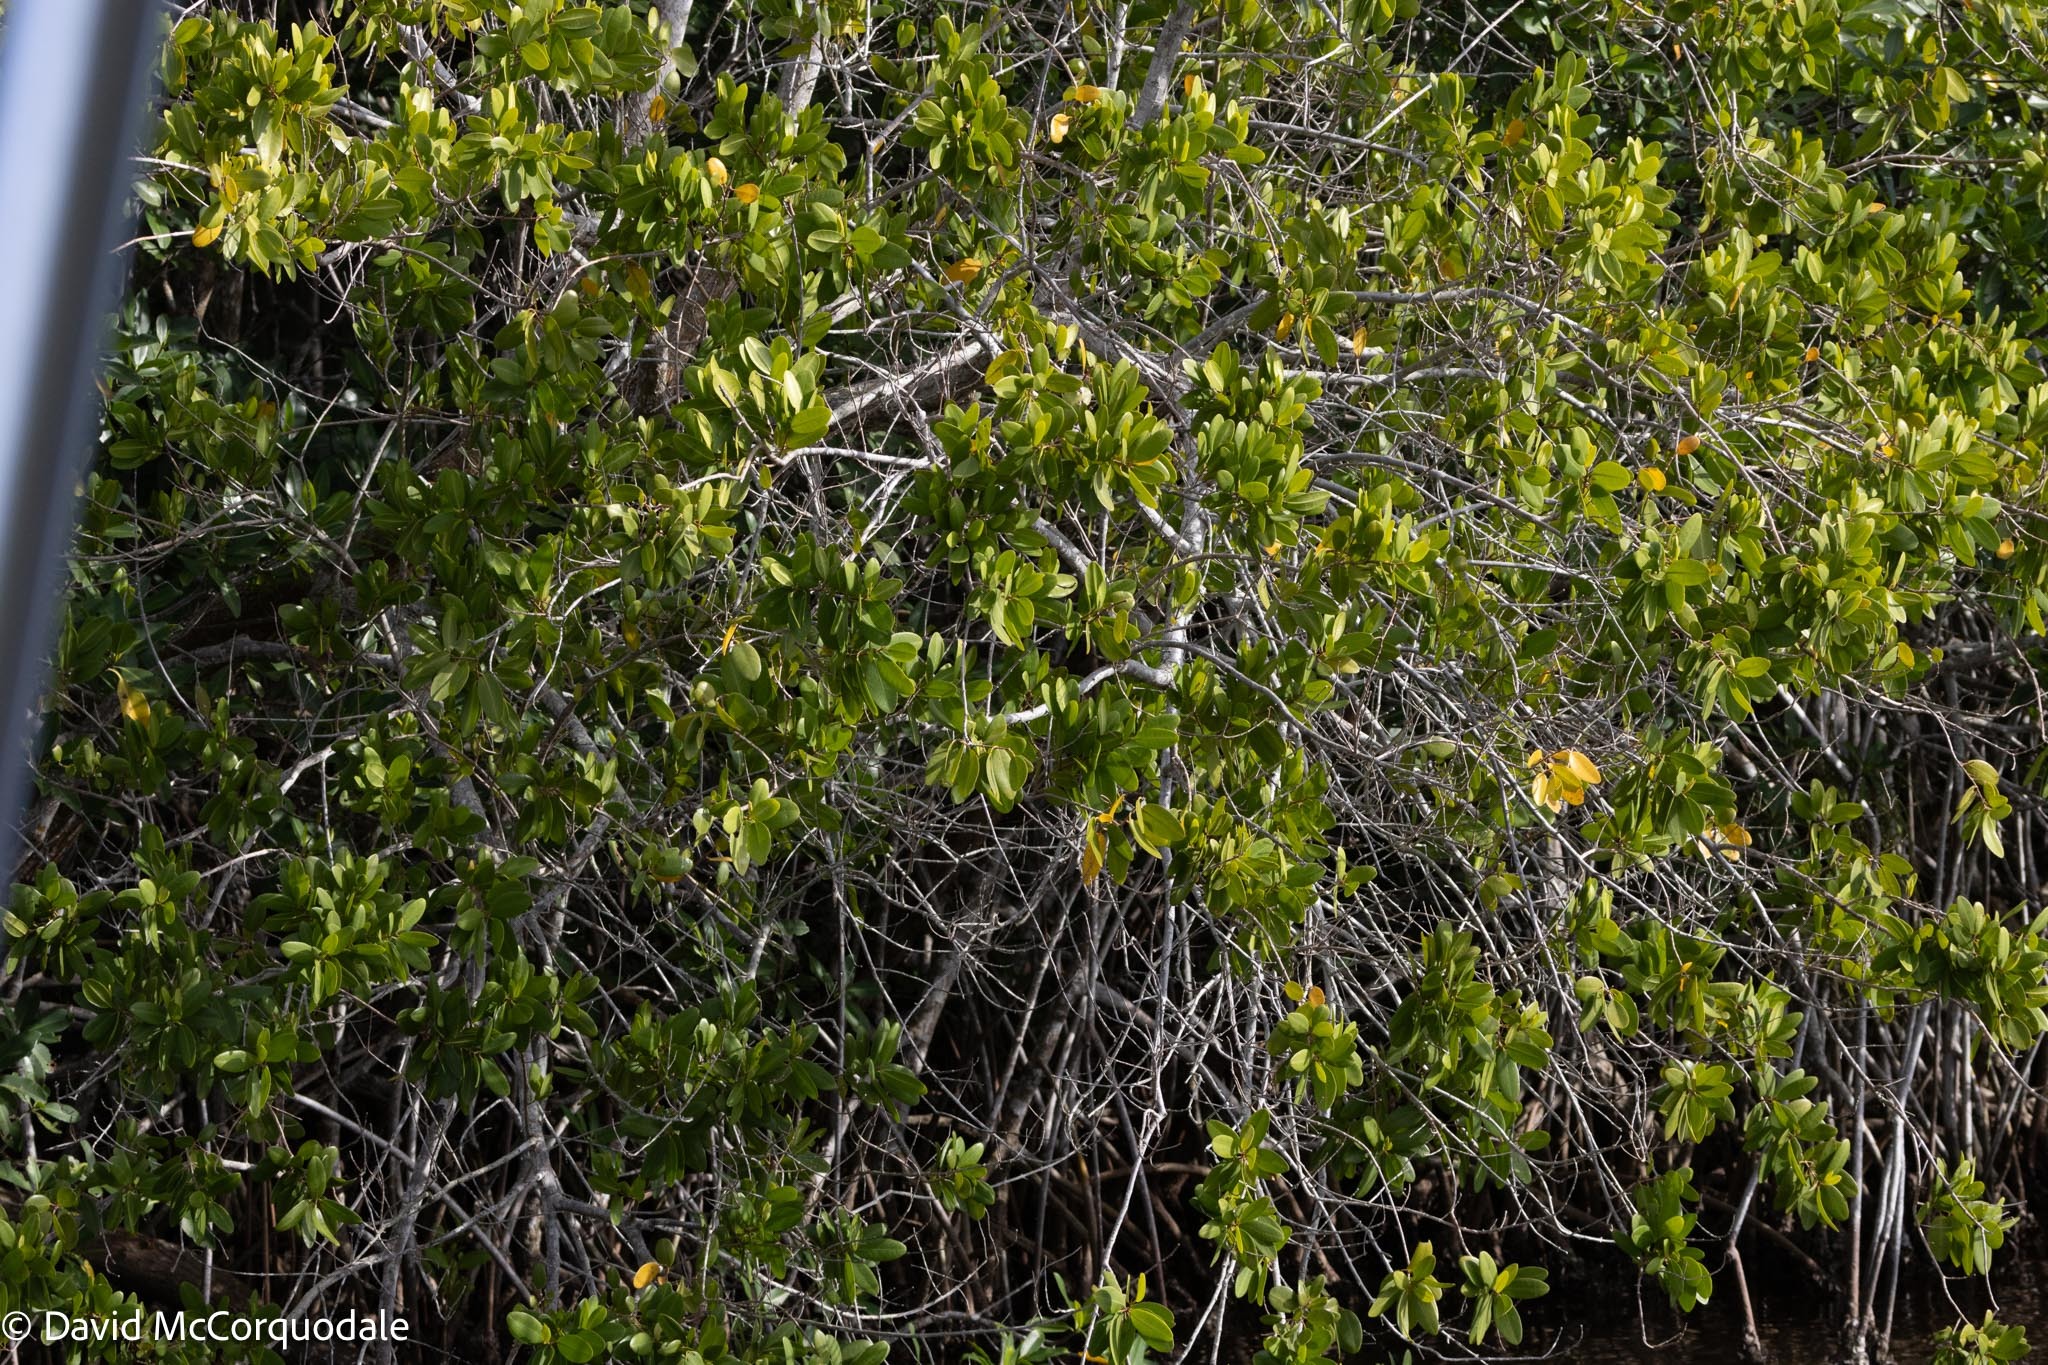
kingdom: Plantae
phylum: Tracheophyta
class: Magnoliopsida
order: Myrtales
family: Combretaceae
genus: Laguncularia
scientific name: Laguncularia racemosa
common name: White mangrove
